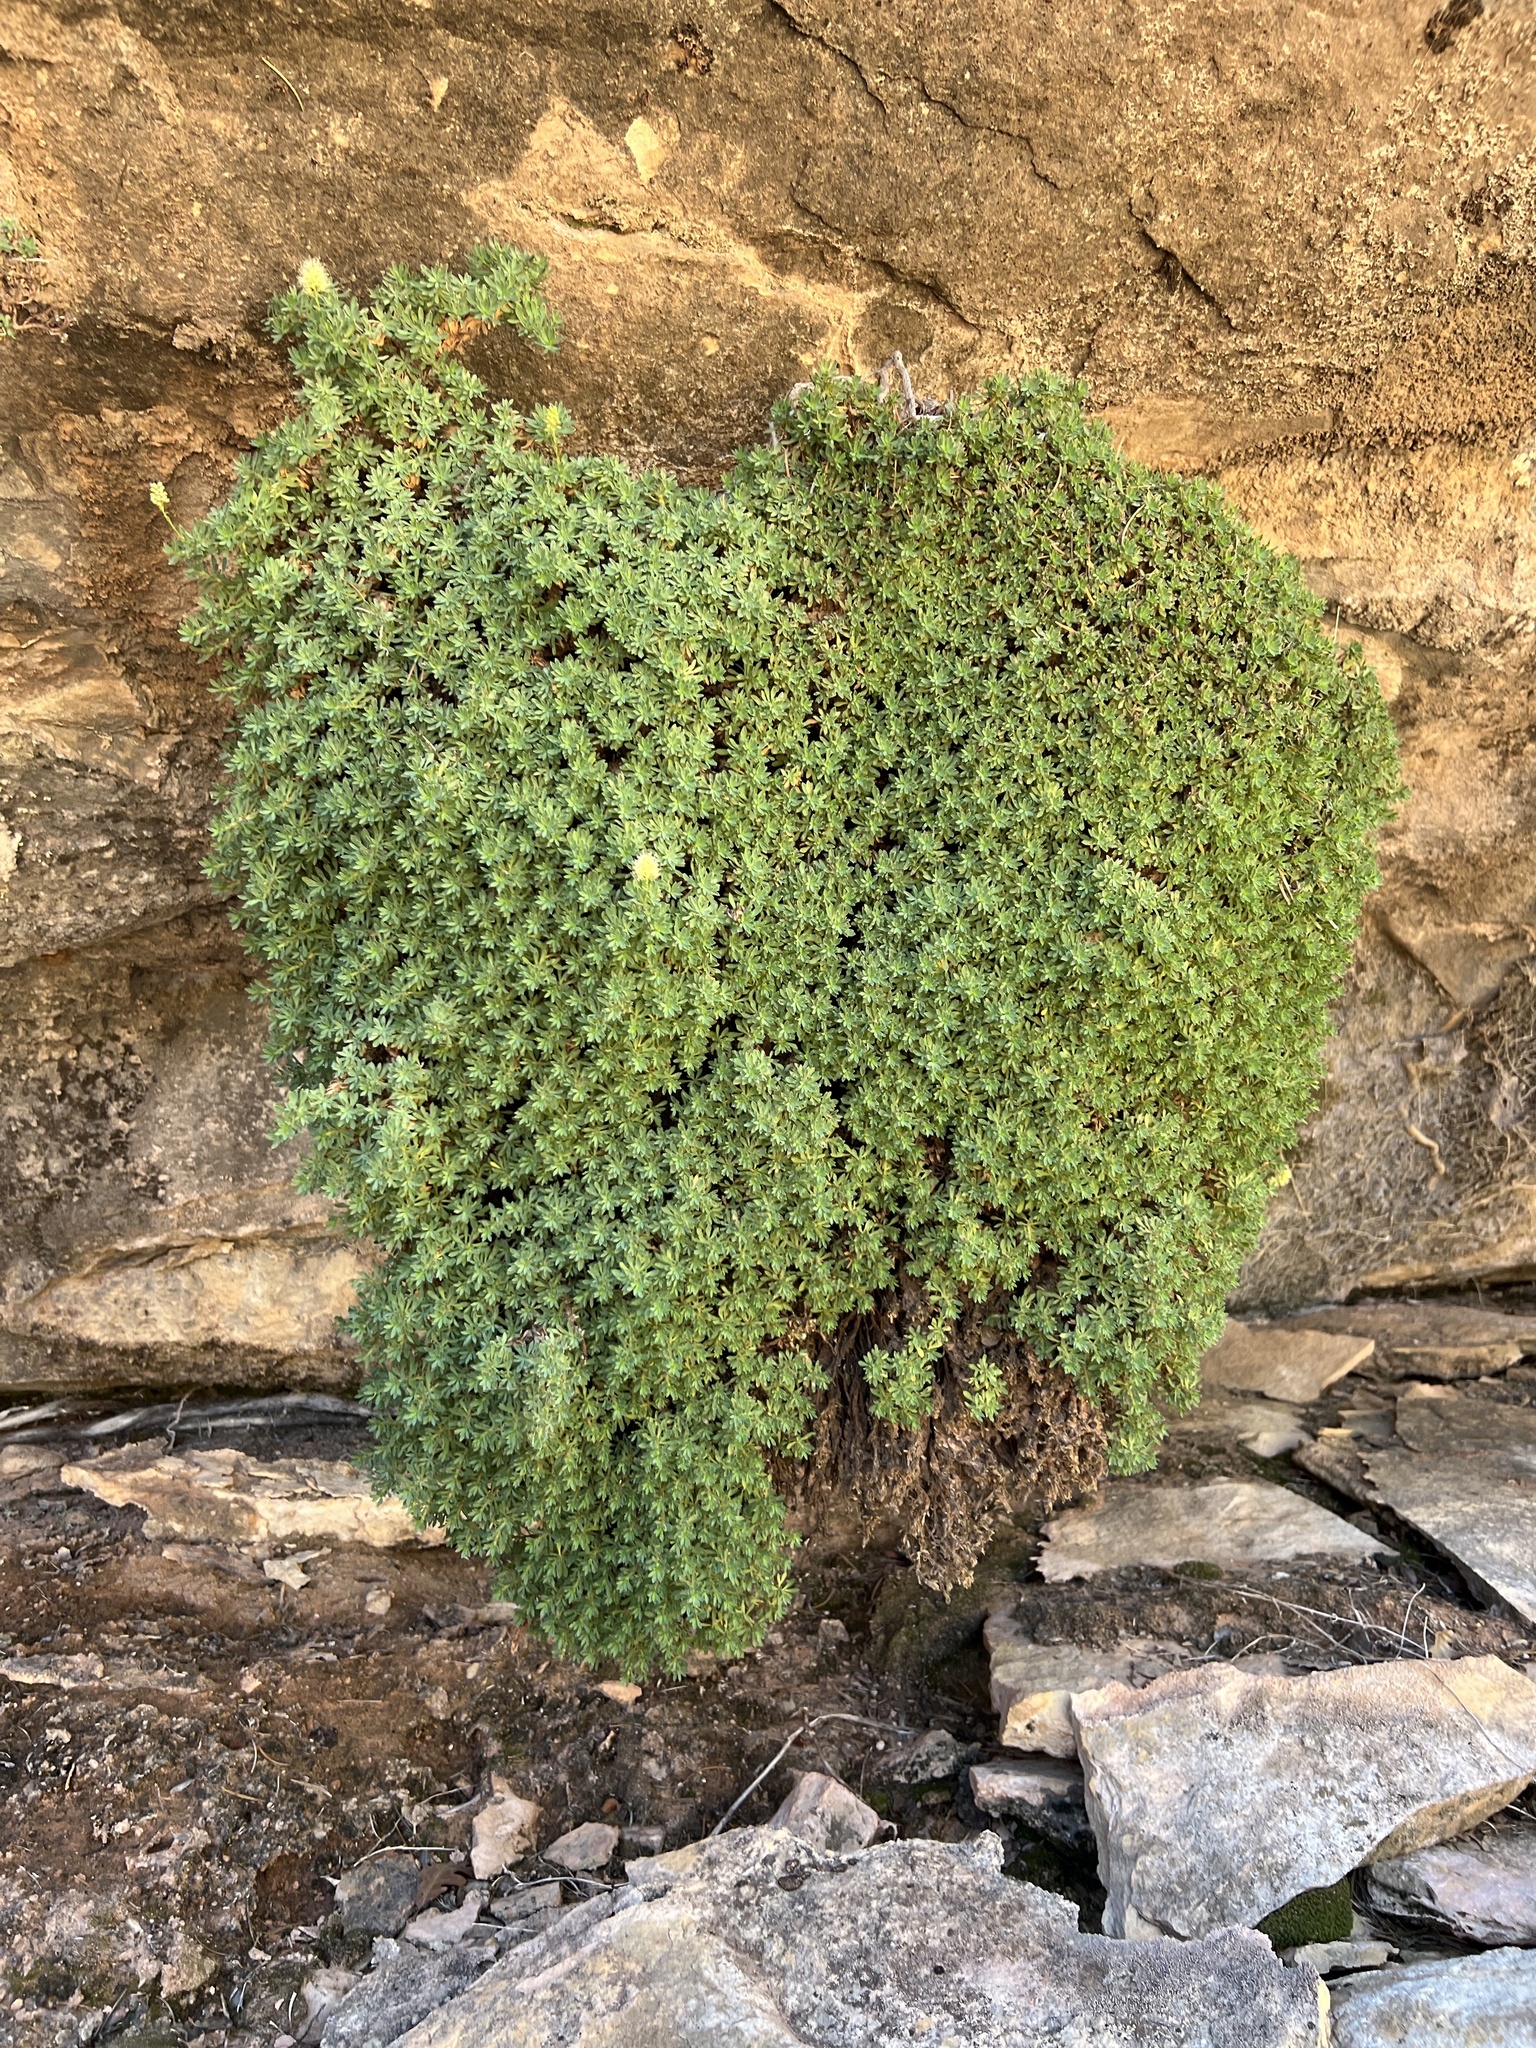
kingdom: Plantae
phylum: Tracheophyta
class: Magnoliopsida
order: Rosales
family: Rosaceae
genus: Petrophytum
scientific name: Petrophytum caespitosum
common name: Mat rockspirea
